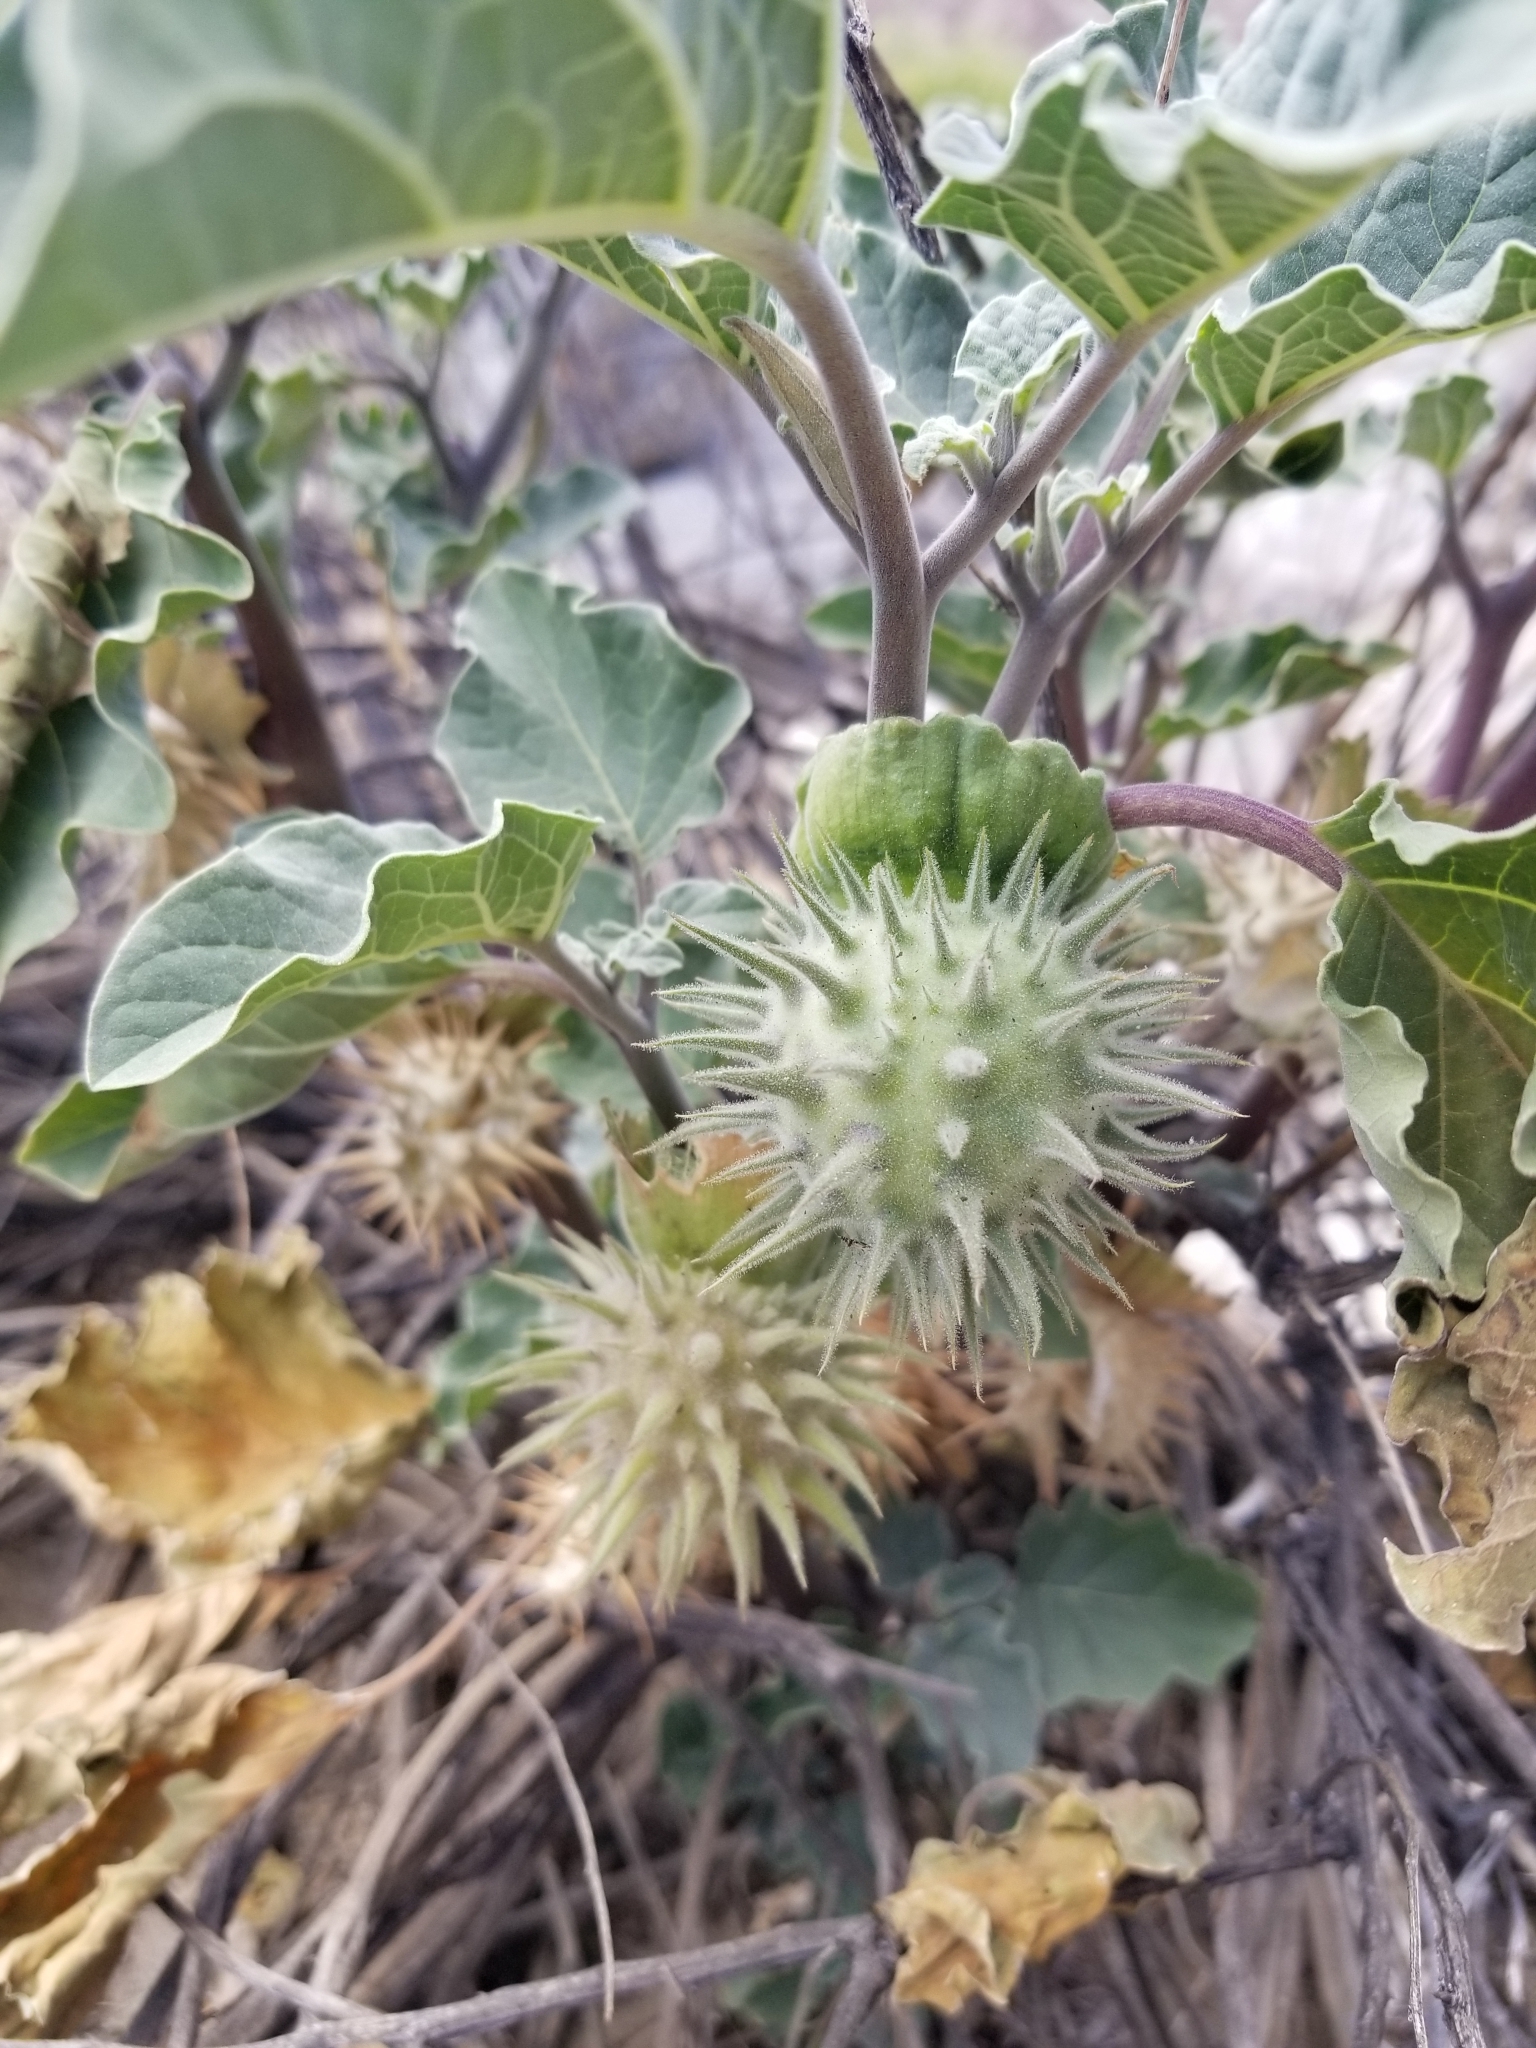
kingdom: Plantae
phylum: Tracheophyta
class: Magnoliopsida
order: Solanales
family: Solanaceae
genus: Datura
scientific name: Datura discolor
